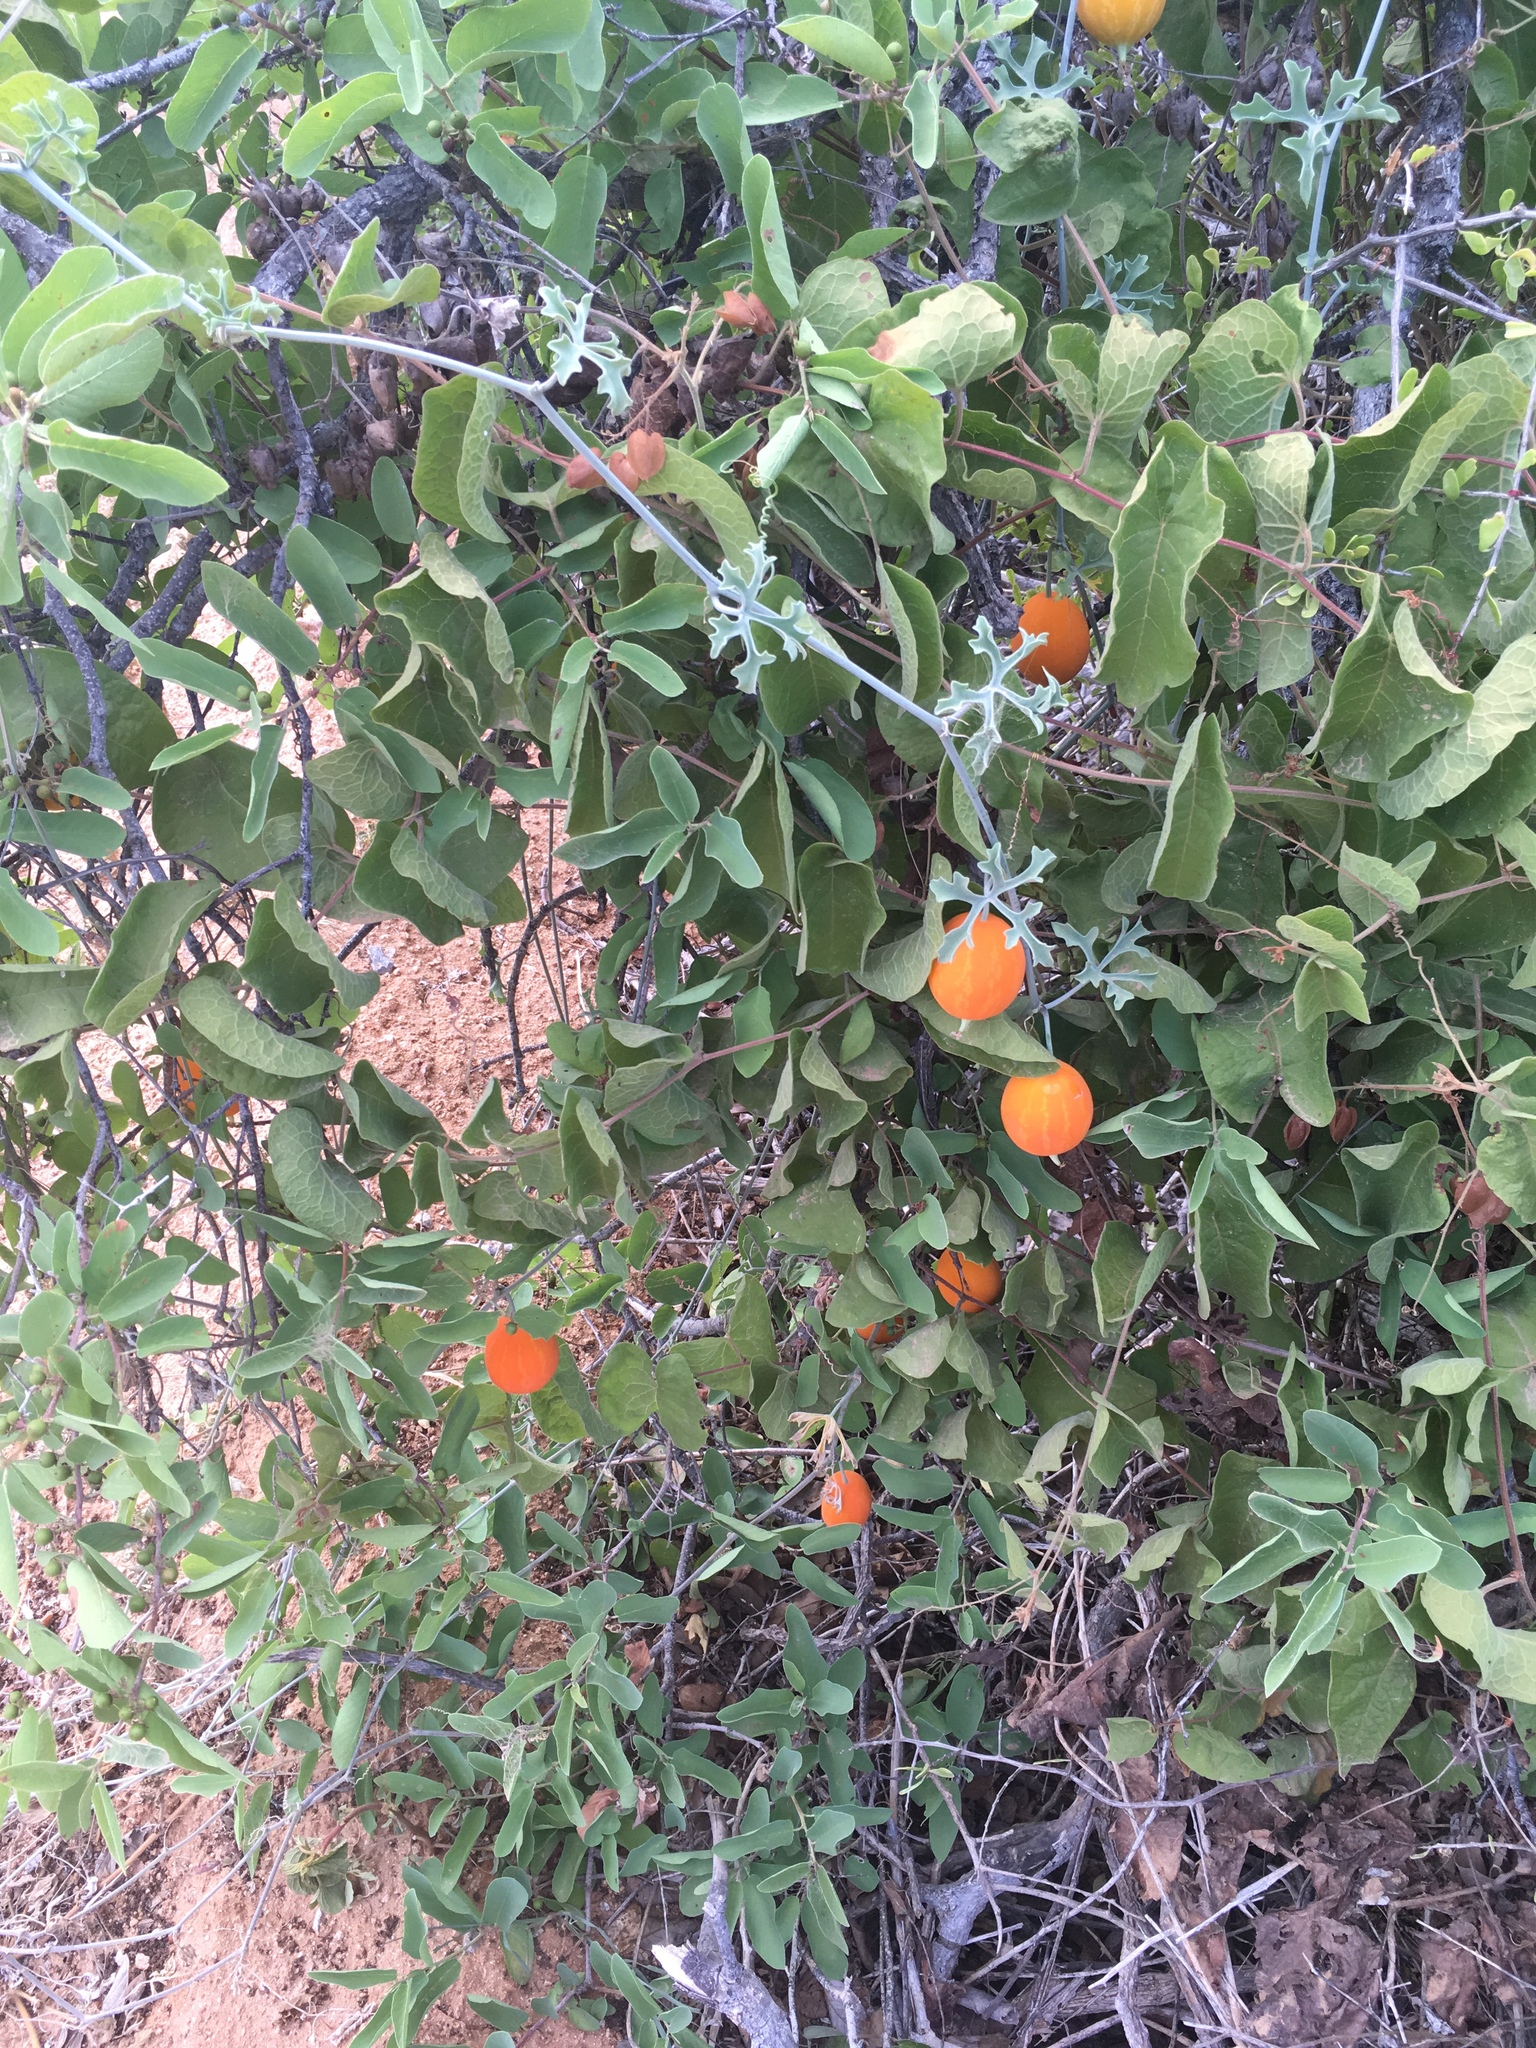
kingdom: Plantae
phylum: Tracheophyta
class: Magnoliopsida
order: Cucurbitales
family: Cucurbitaceae
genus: Ibervillea
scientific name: Ibervillea sonorae
